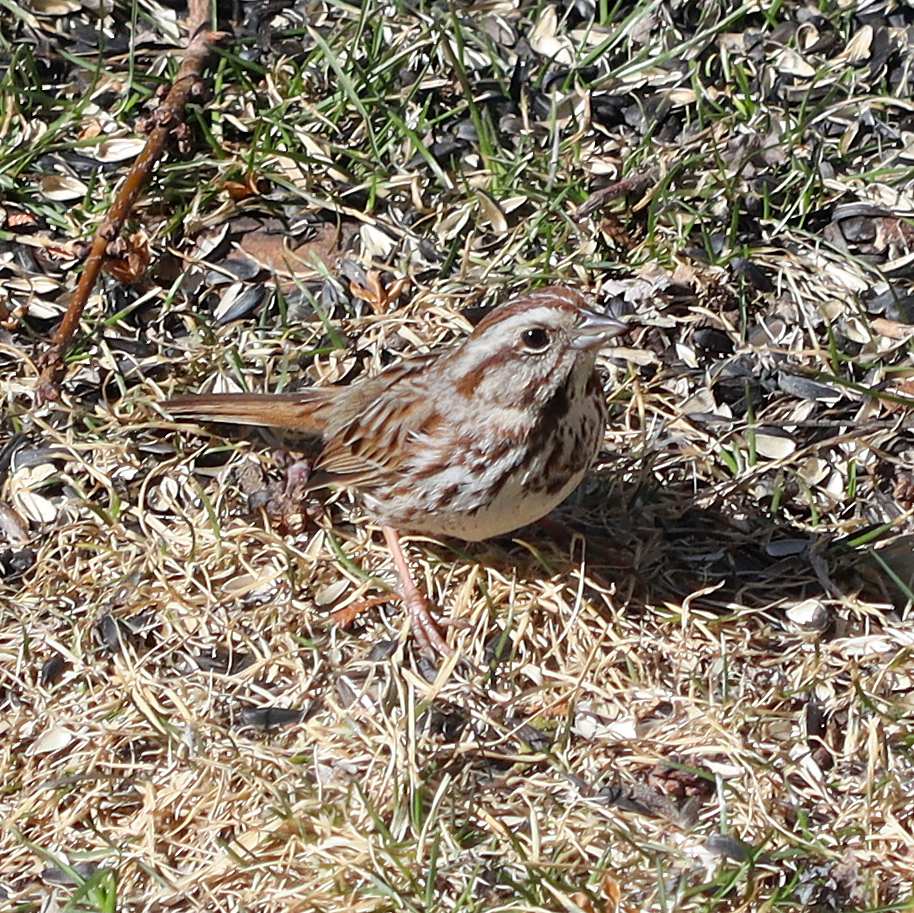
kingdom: Animalia
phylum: Chordata
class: Aves
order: Passeriformes
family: Passerellidae
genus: Melospiza
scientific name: Melospiza melodia
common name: Song sparrow
